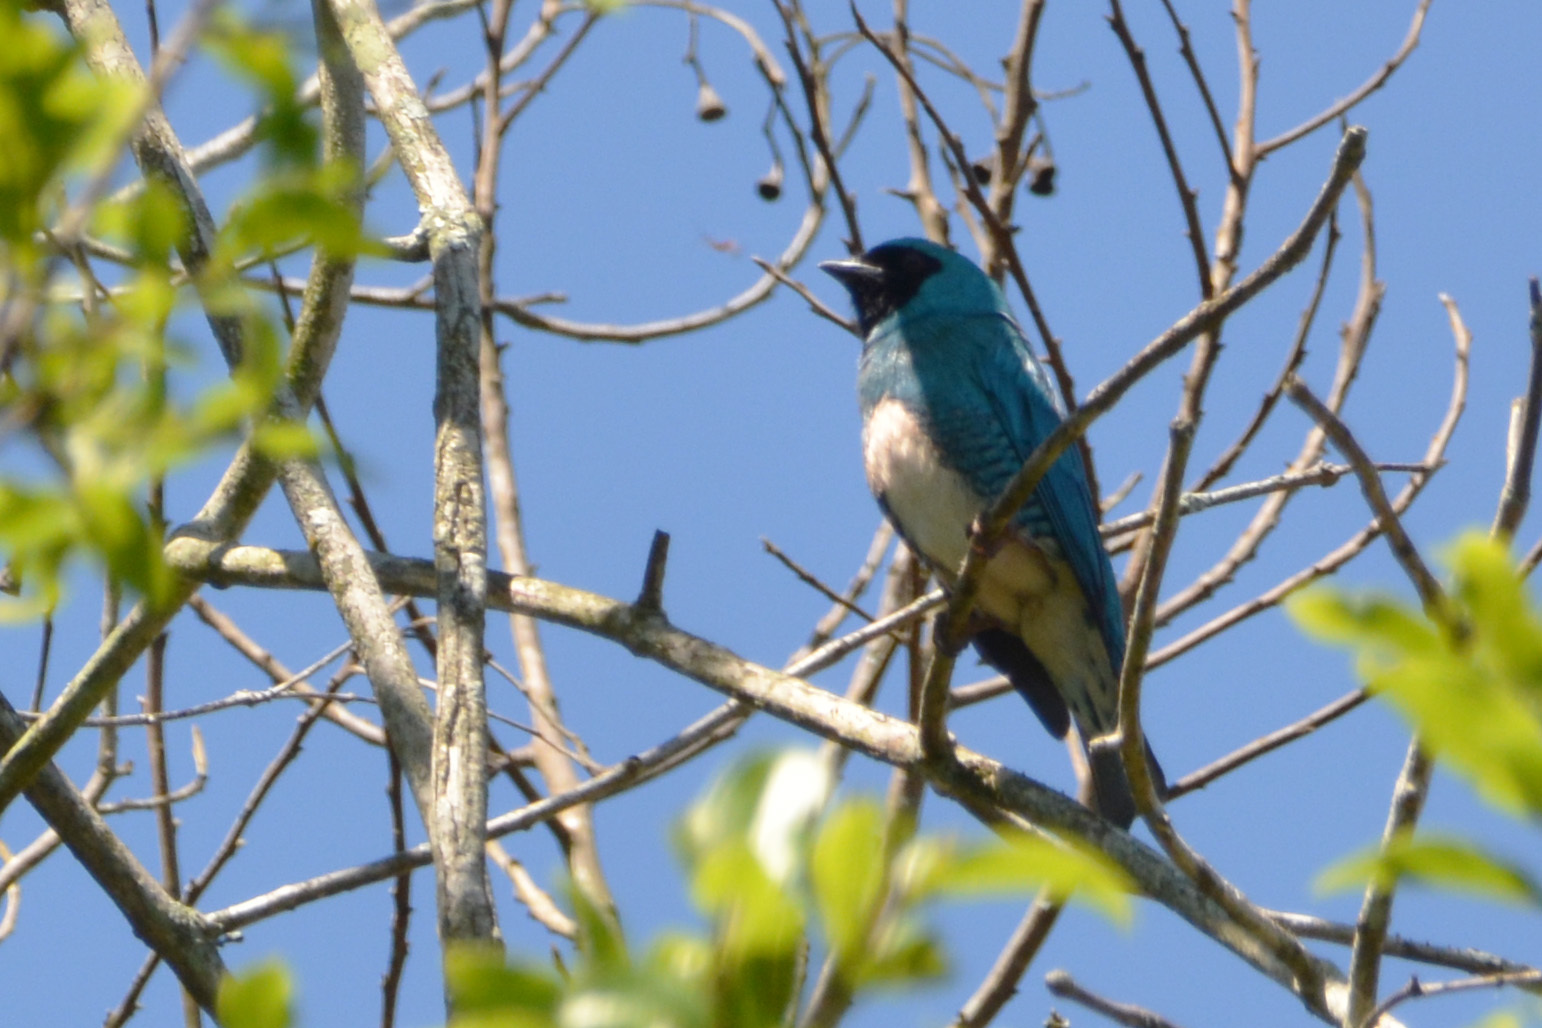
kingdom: Animalia
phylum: Chordata
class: Aves
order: Passeriformes
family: Thraupidae
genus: Tersina
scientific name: Tersina viridis
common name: Swallow tanager
